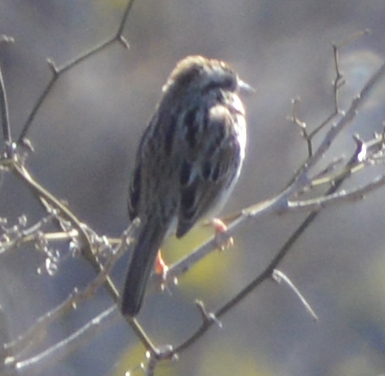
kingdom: Animalia
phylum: Chordata
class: Aves
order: Passeriformes
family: Passerellidae
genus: Melospiza
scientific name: Melospiza melodia
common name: Song sparrow
